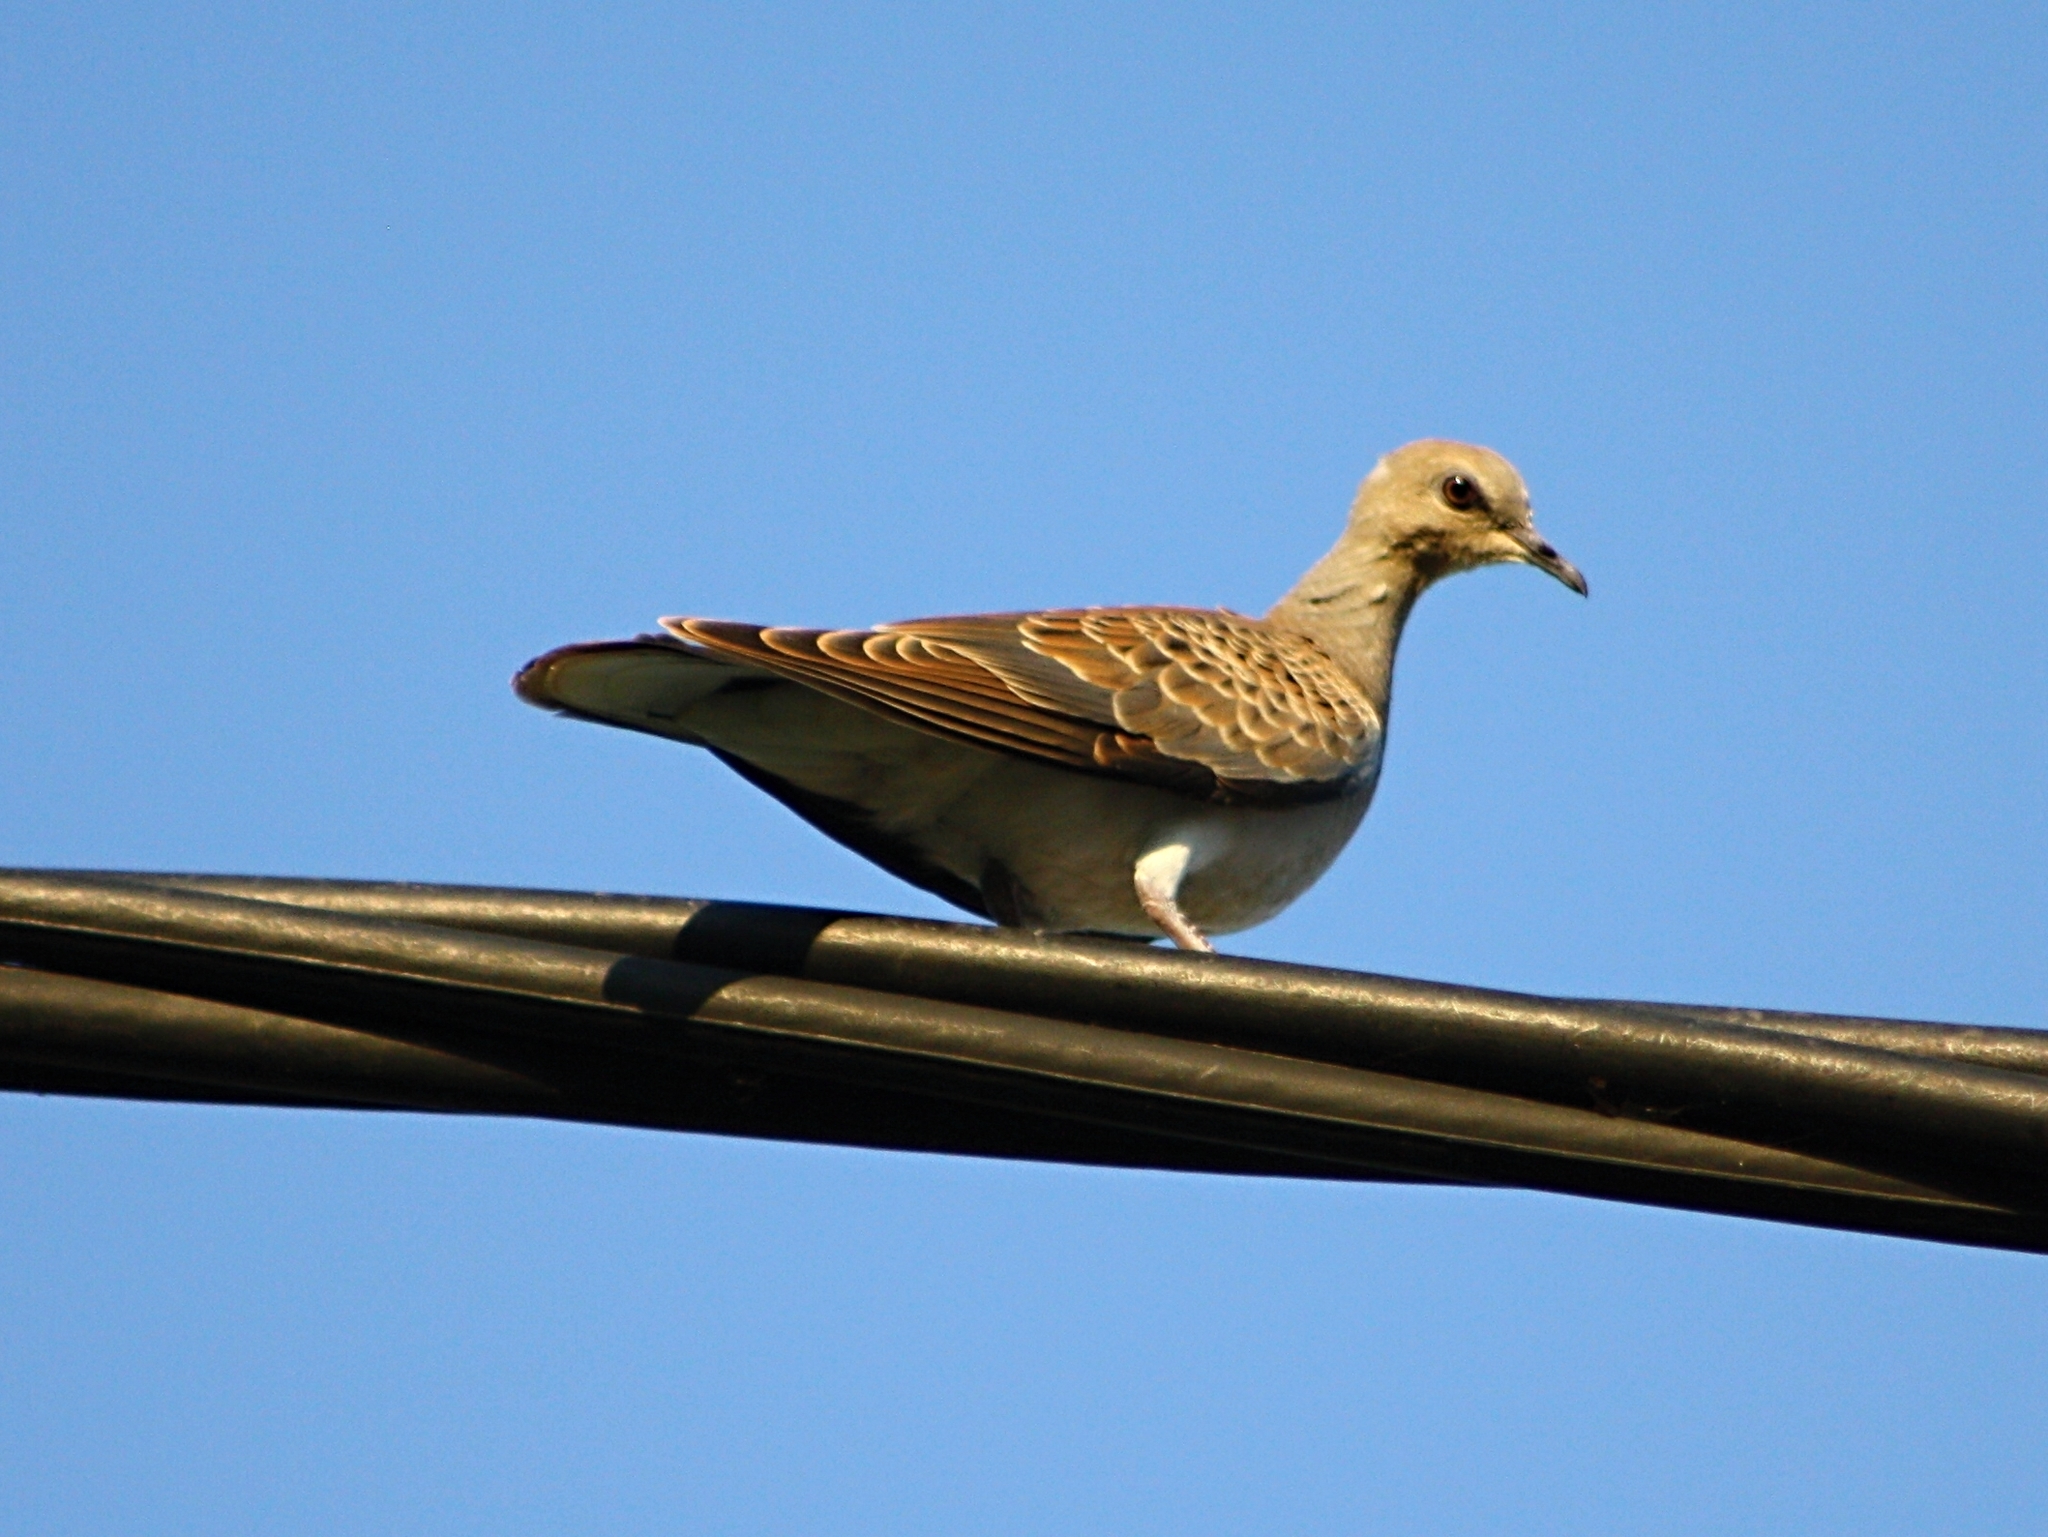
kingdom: Animalia
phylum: Chordata
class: Aves
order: Columbiformes
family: Columbidae
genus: Streptopelia
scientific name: Streptopelia turtur
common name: European turtle dove
